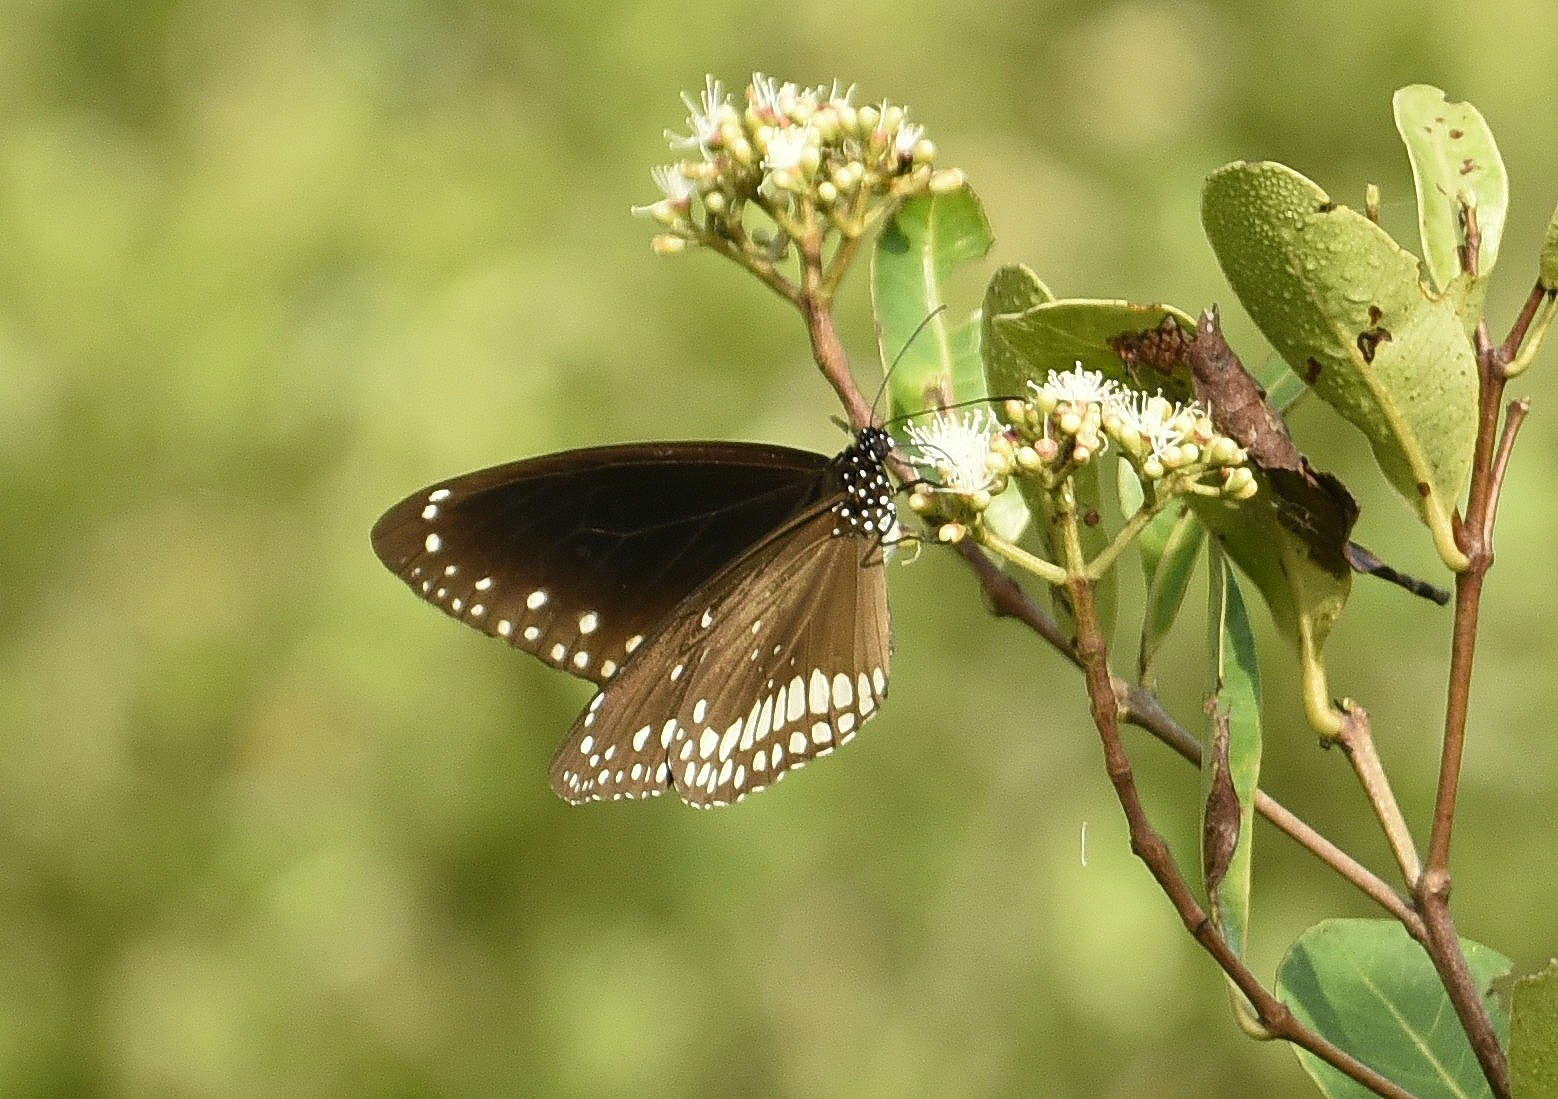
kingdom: Animalia
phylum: Arthropoda
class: Insecta
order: Lepidoptera
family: Nymphalidae
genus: Euploea
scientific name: Euploea core
